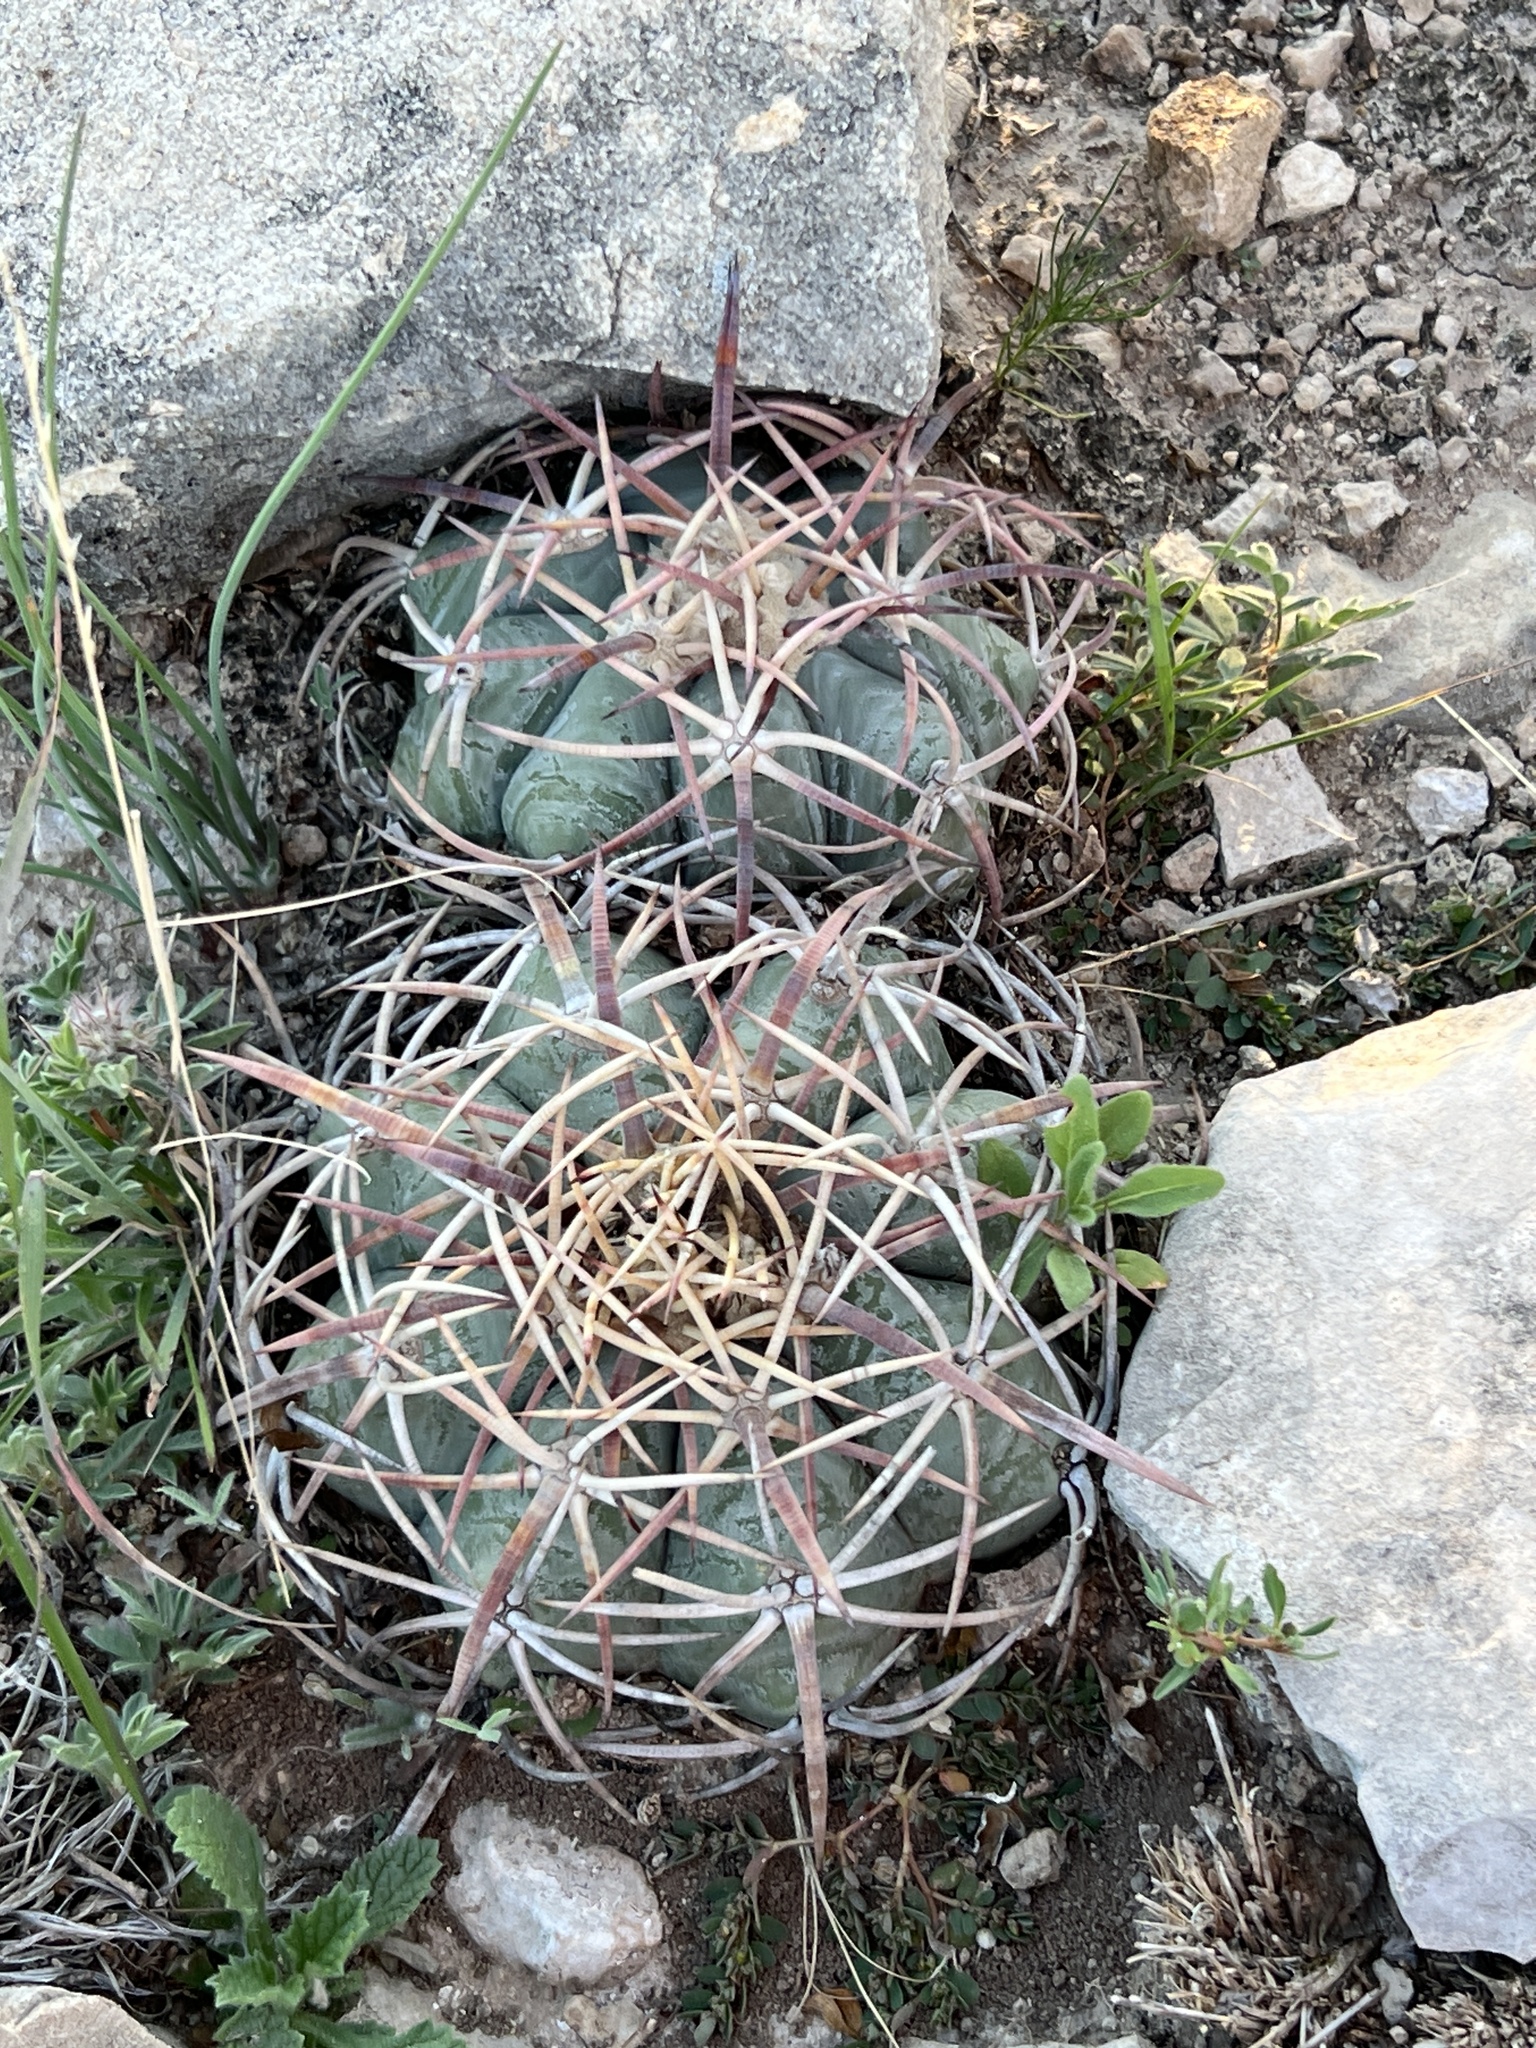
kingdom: Plantae
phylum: Tracheophyta
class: Magnoliopsida
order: Caryophyllales
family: Cactaceae
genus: Echinocactus
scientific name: Echinocactus horizonthalonius
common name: Devilshead
